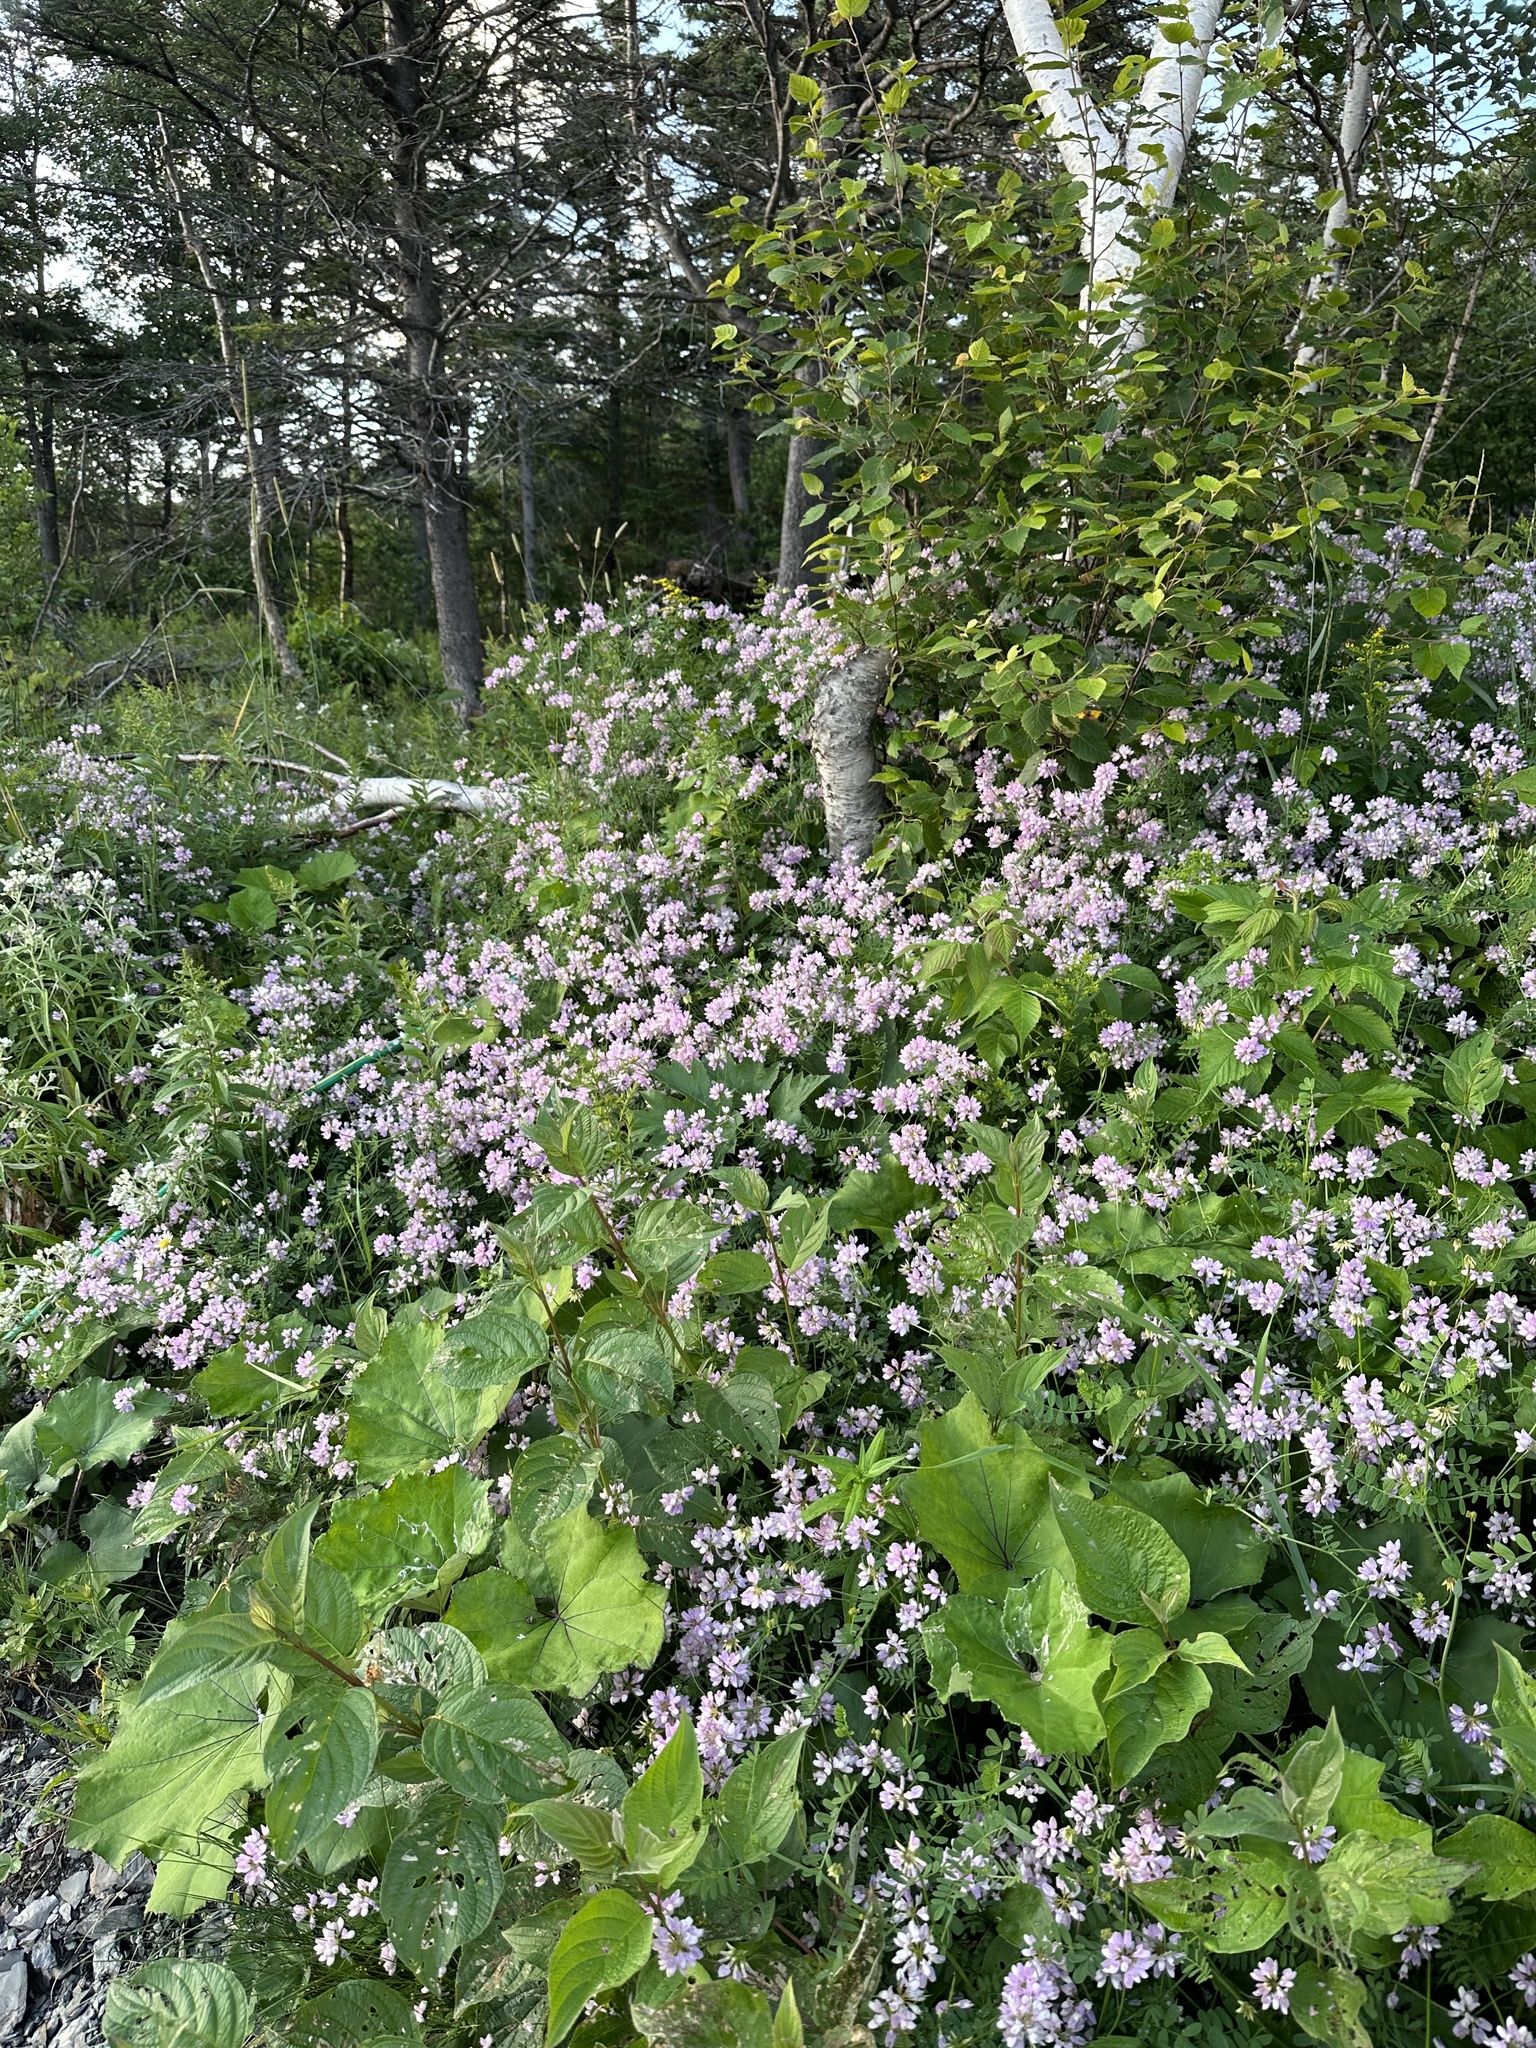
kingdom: Plantae
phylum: Tracheophyta
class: Magnoliopsida
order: Fabales
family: Fabaceae
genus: Coronilla
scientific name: Coronilla varia
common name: Crownvetch
